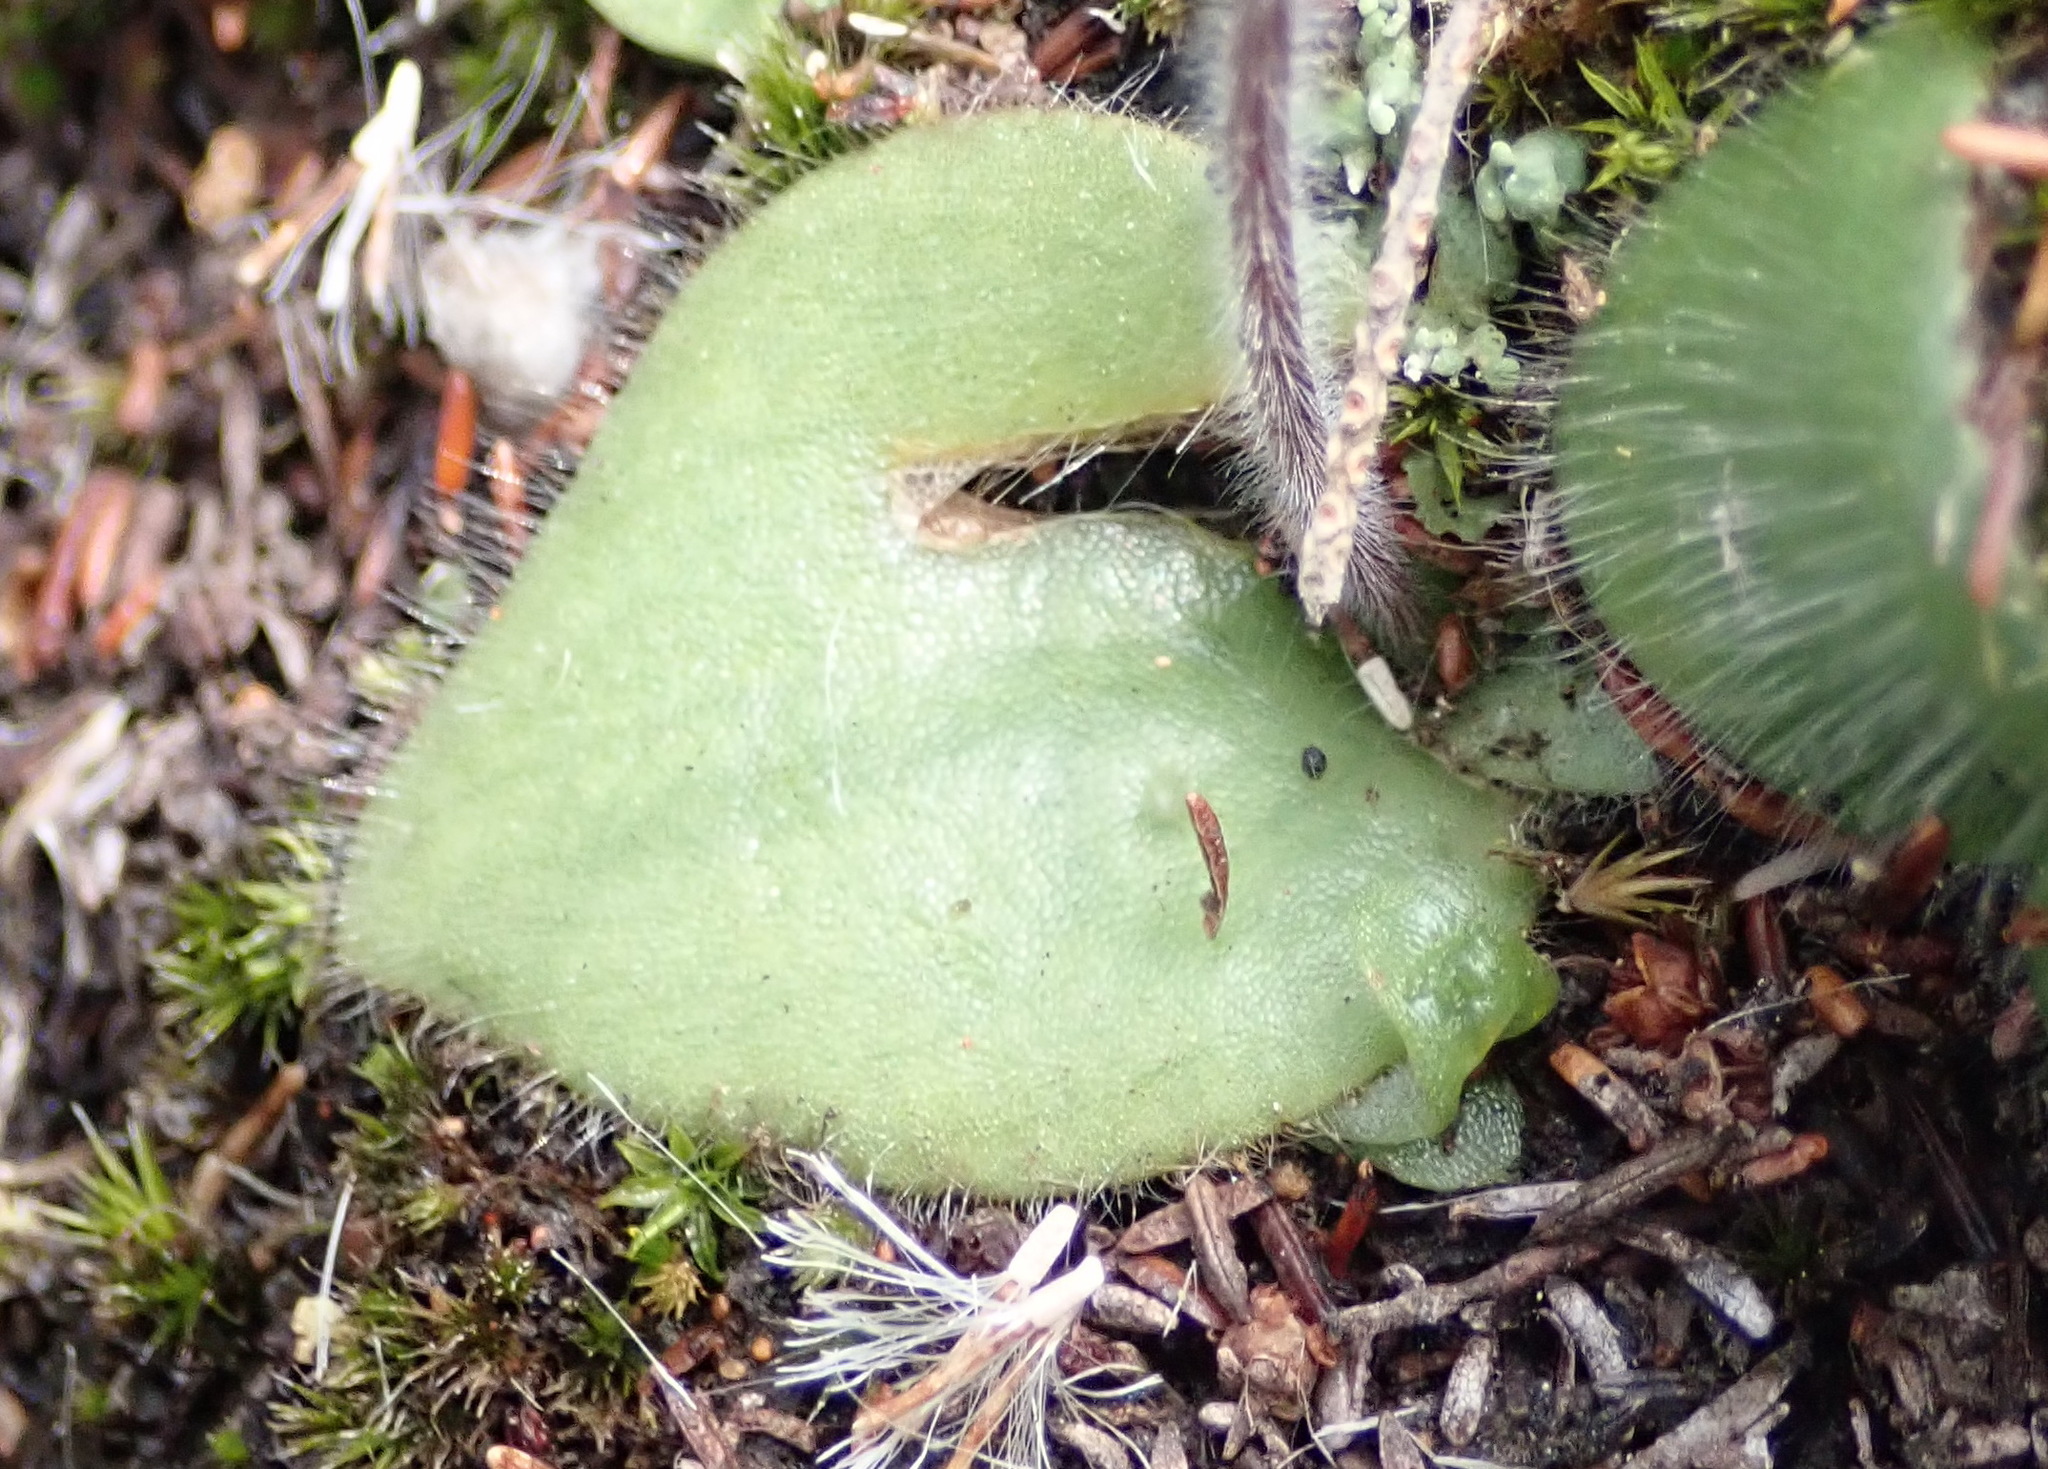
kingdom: Plantae
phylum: Tracheophyta
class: Liliopsida
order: Asparagales
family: Orchidaceae
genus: Holothrix
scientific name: Holothrix villosa
